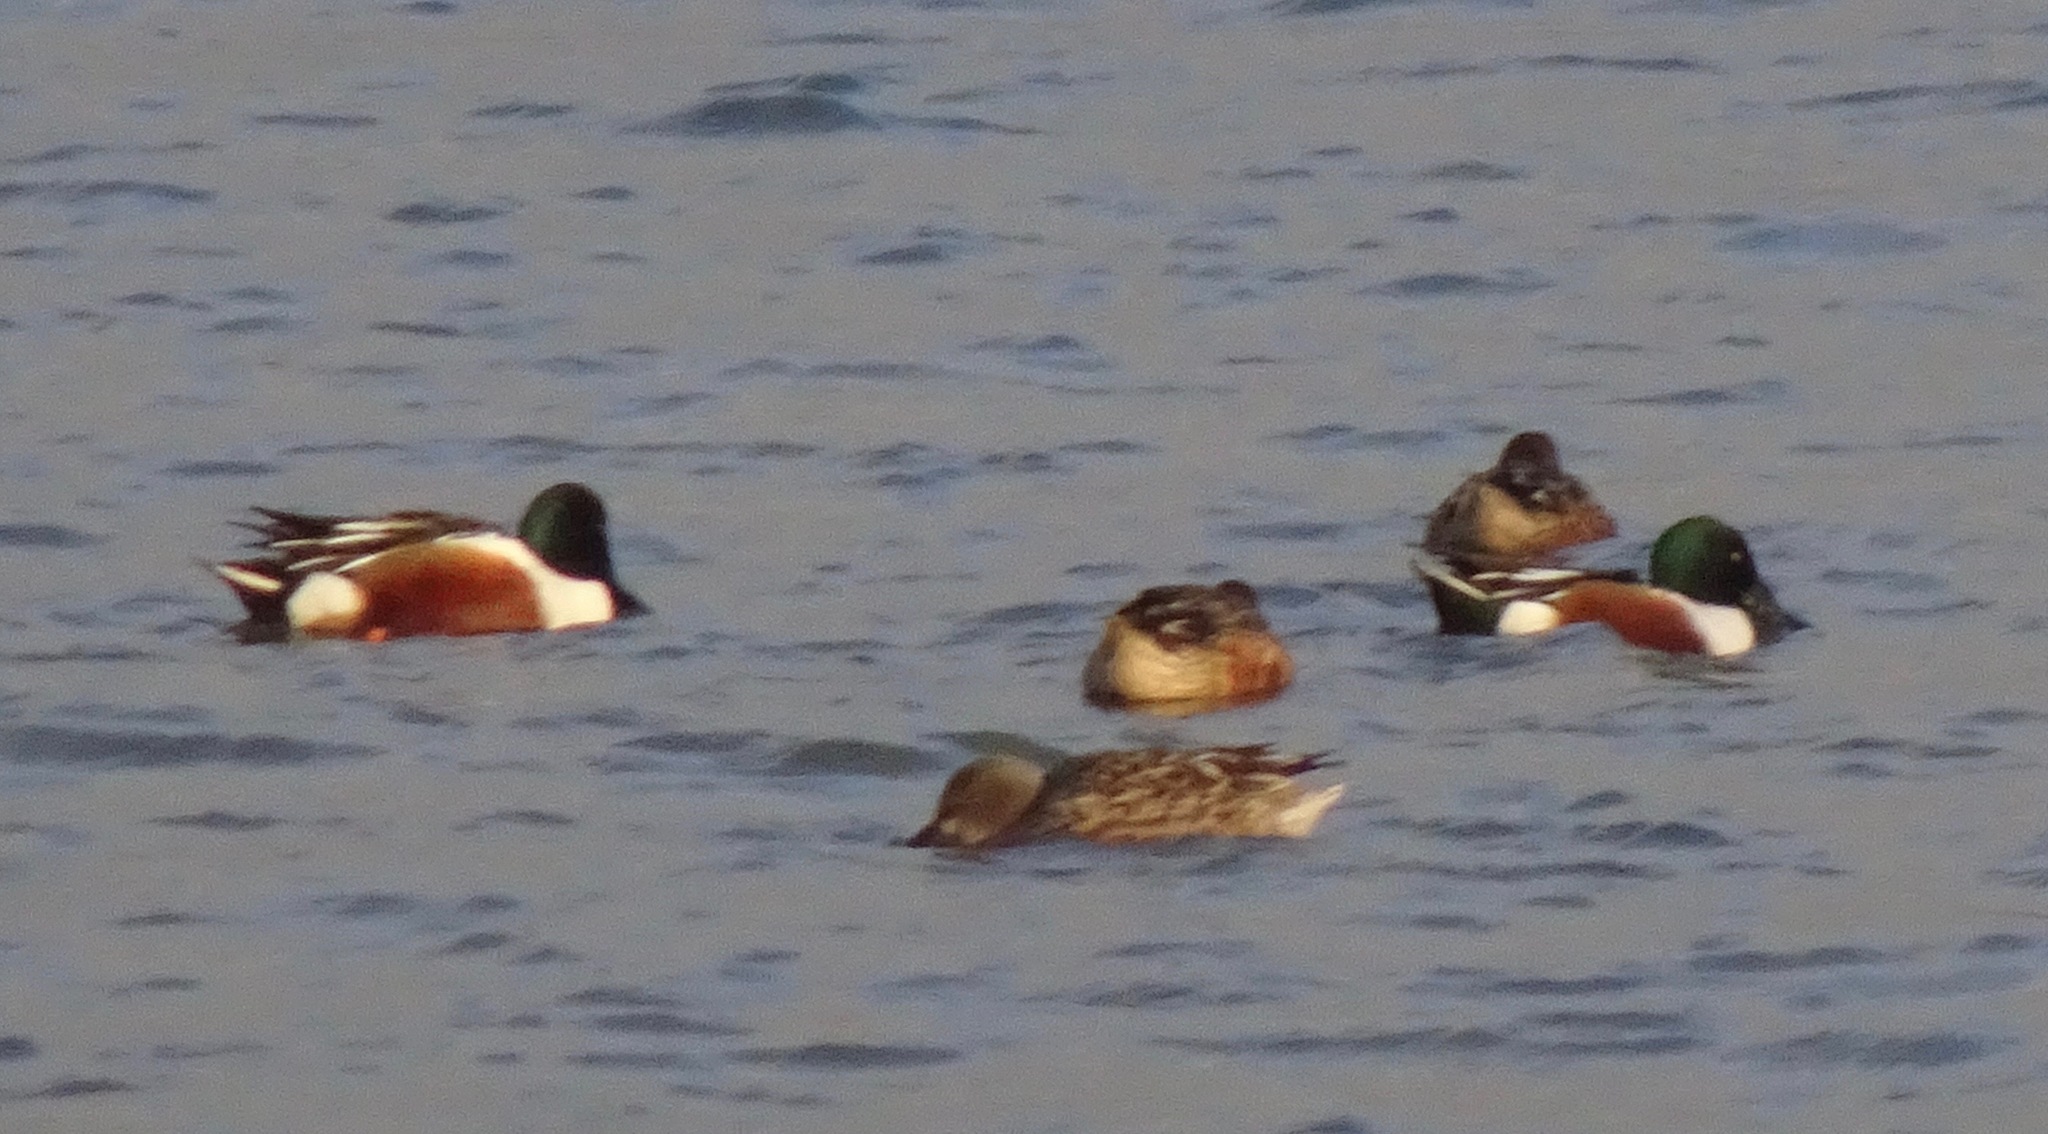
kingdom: Animalia
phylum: Chordata
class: Aves
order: Anseriformes
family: Anatidae
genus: Spatula
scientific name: Spatula clypeata
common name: Northern shoveler
